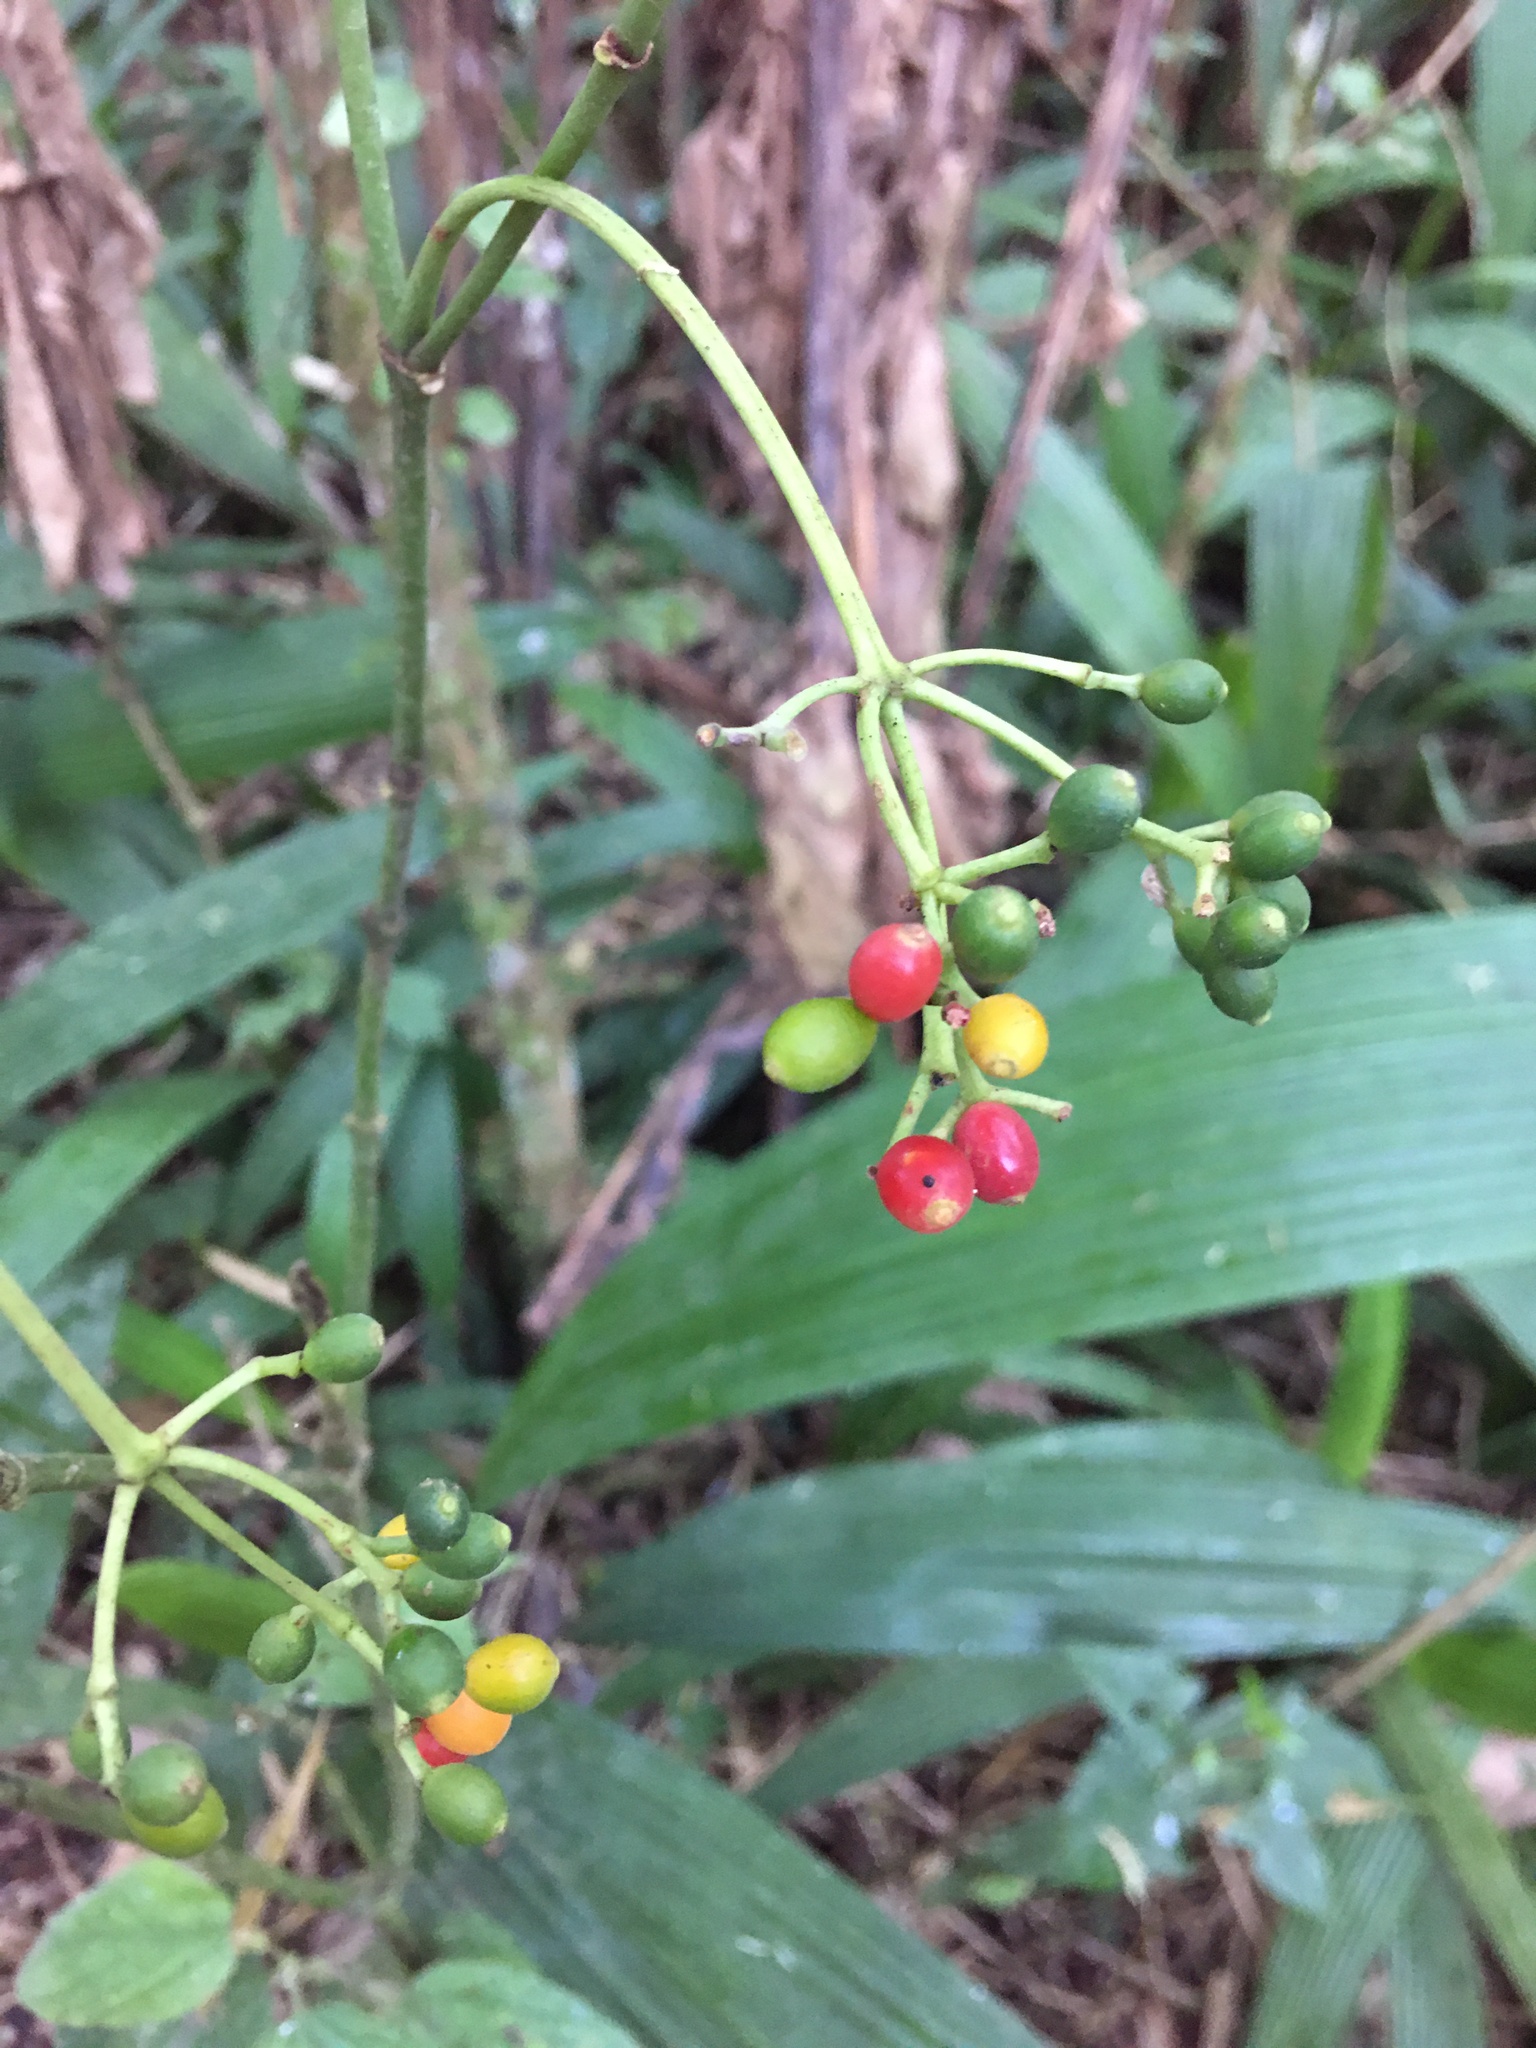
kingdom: Plantae
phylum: Tracheophyta
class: Magnoliopsida
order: Gentianales
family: Rubiaceae
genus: Psychotria
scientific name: Psychotria carthagenensis
